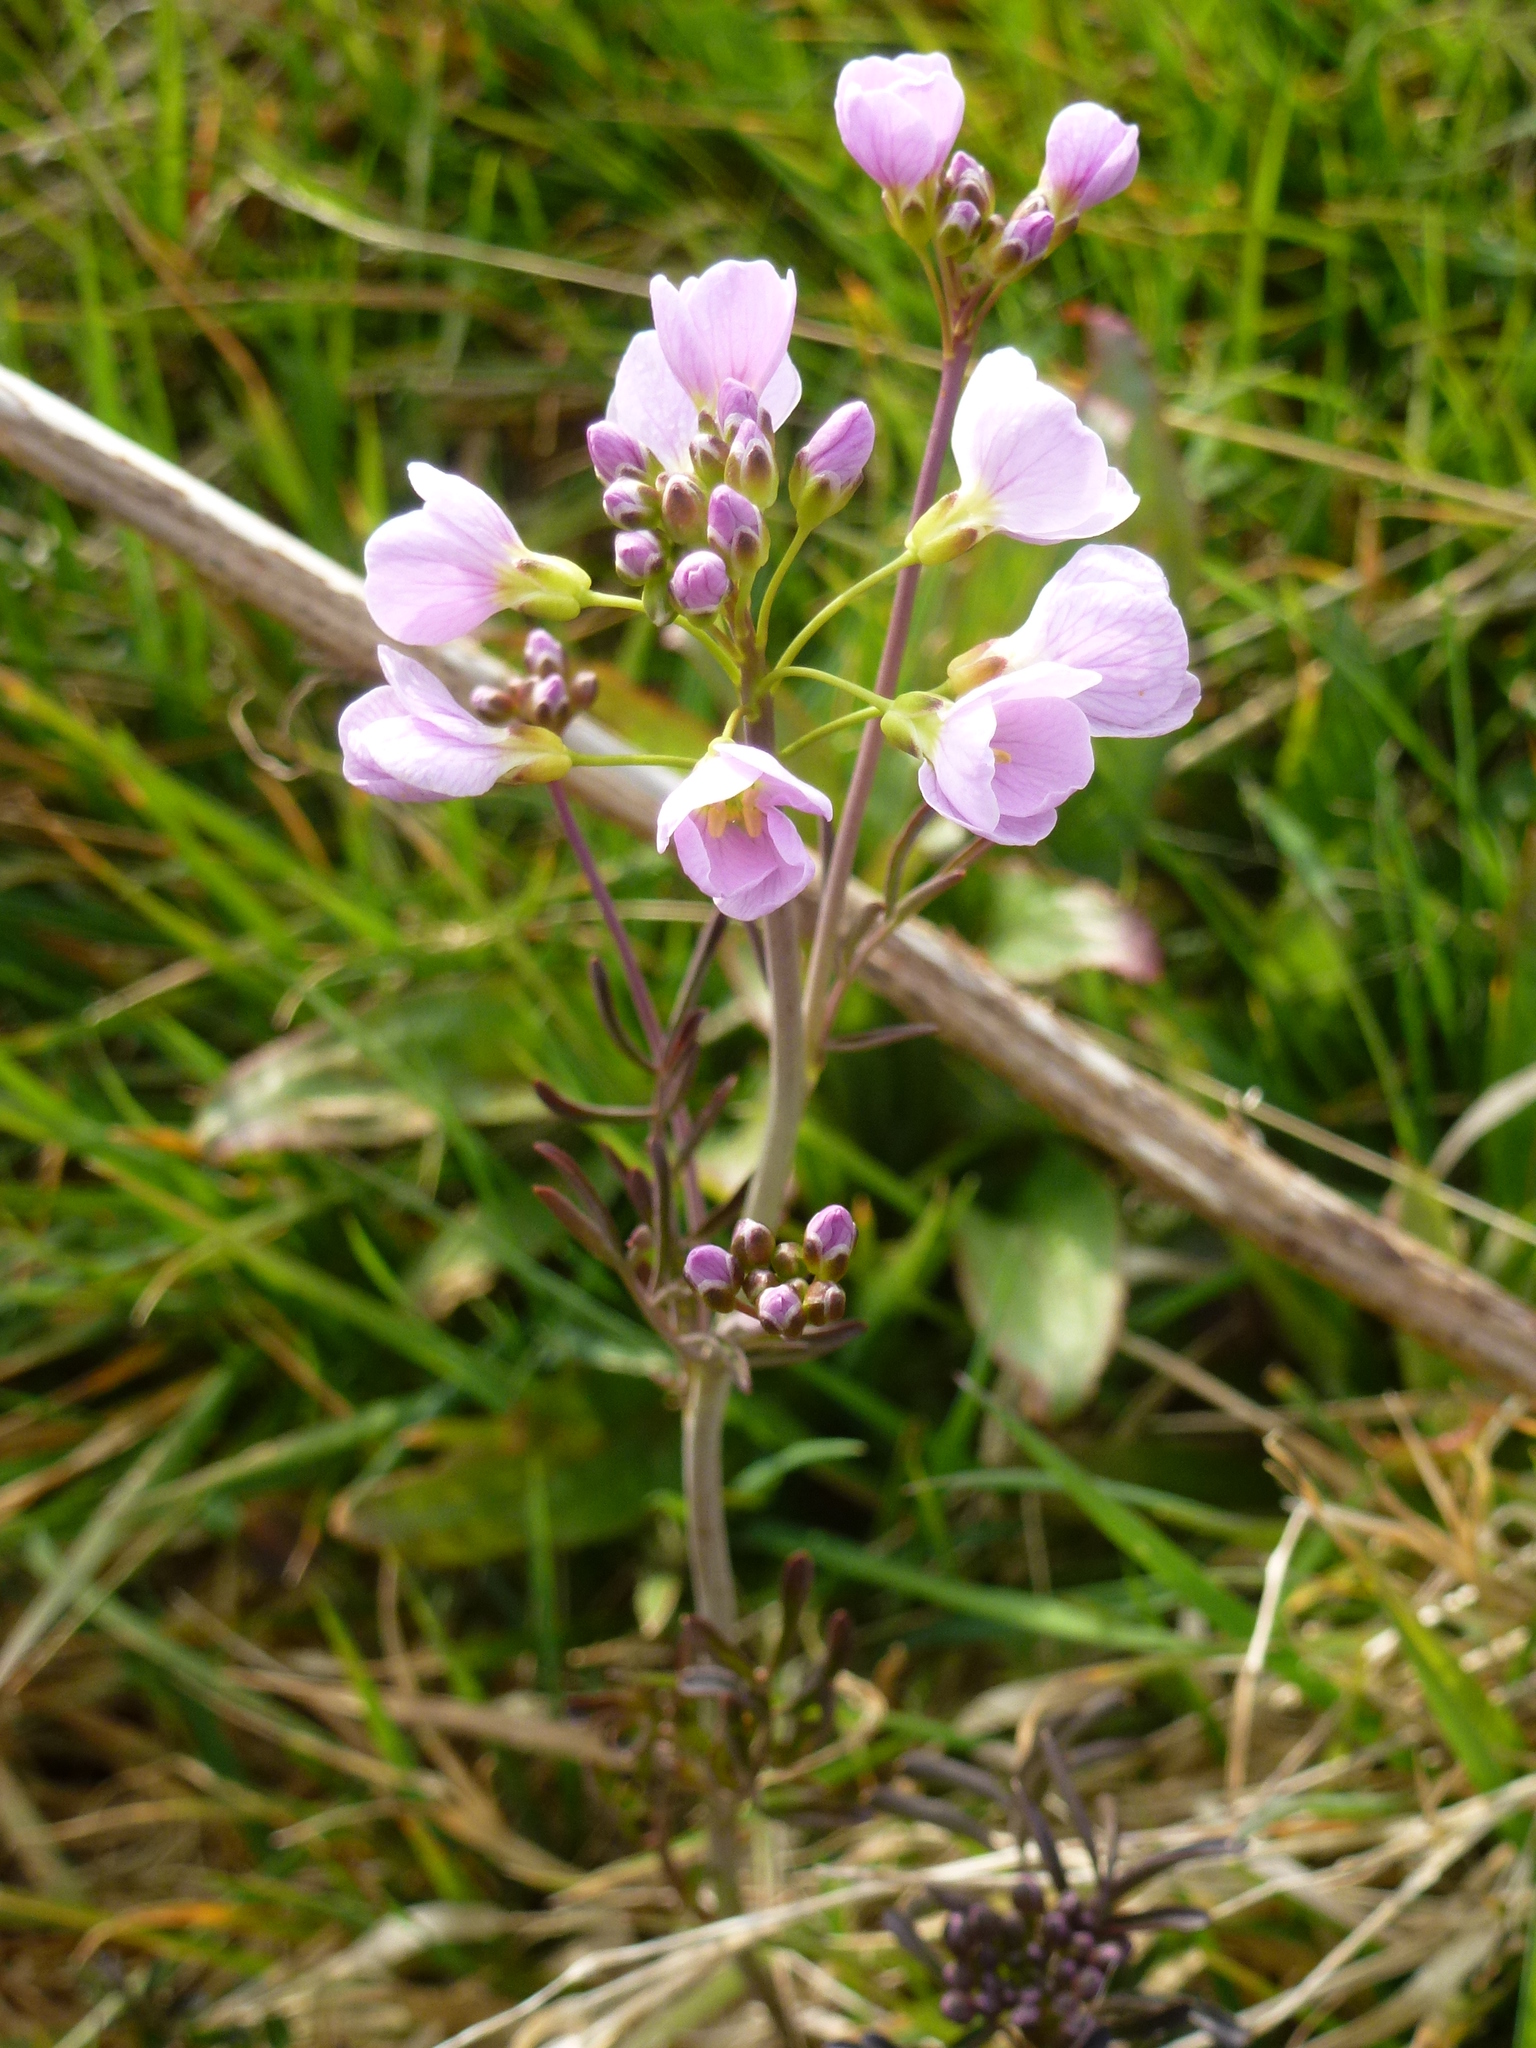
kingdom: Plantae
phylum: Tracheophyta
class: Magnoliopsida
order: Brassicales
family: Brassicaceae
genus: Cardamine
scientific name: Cardamine pratensis
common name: Cuckoo flower
